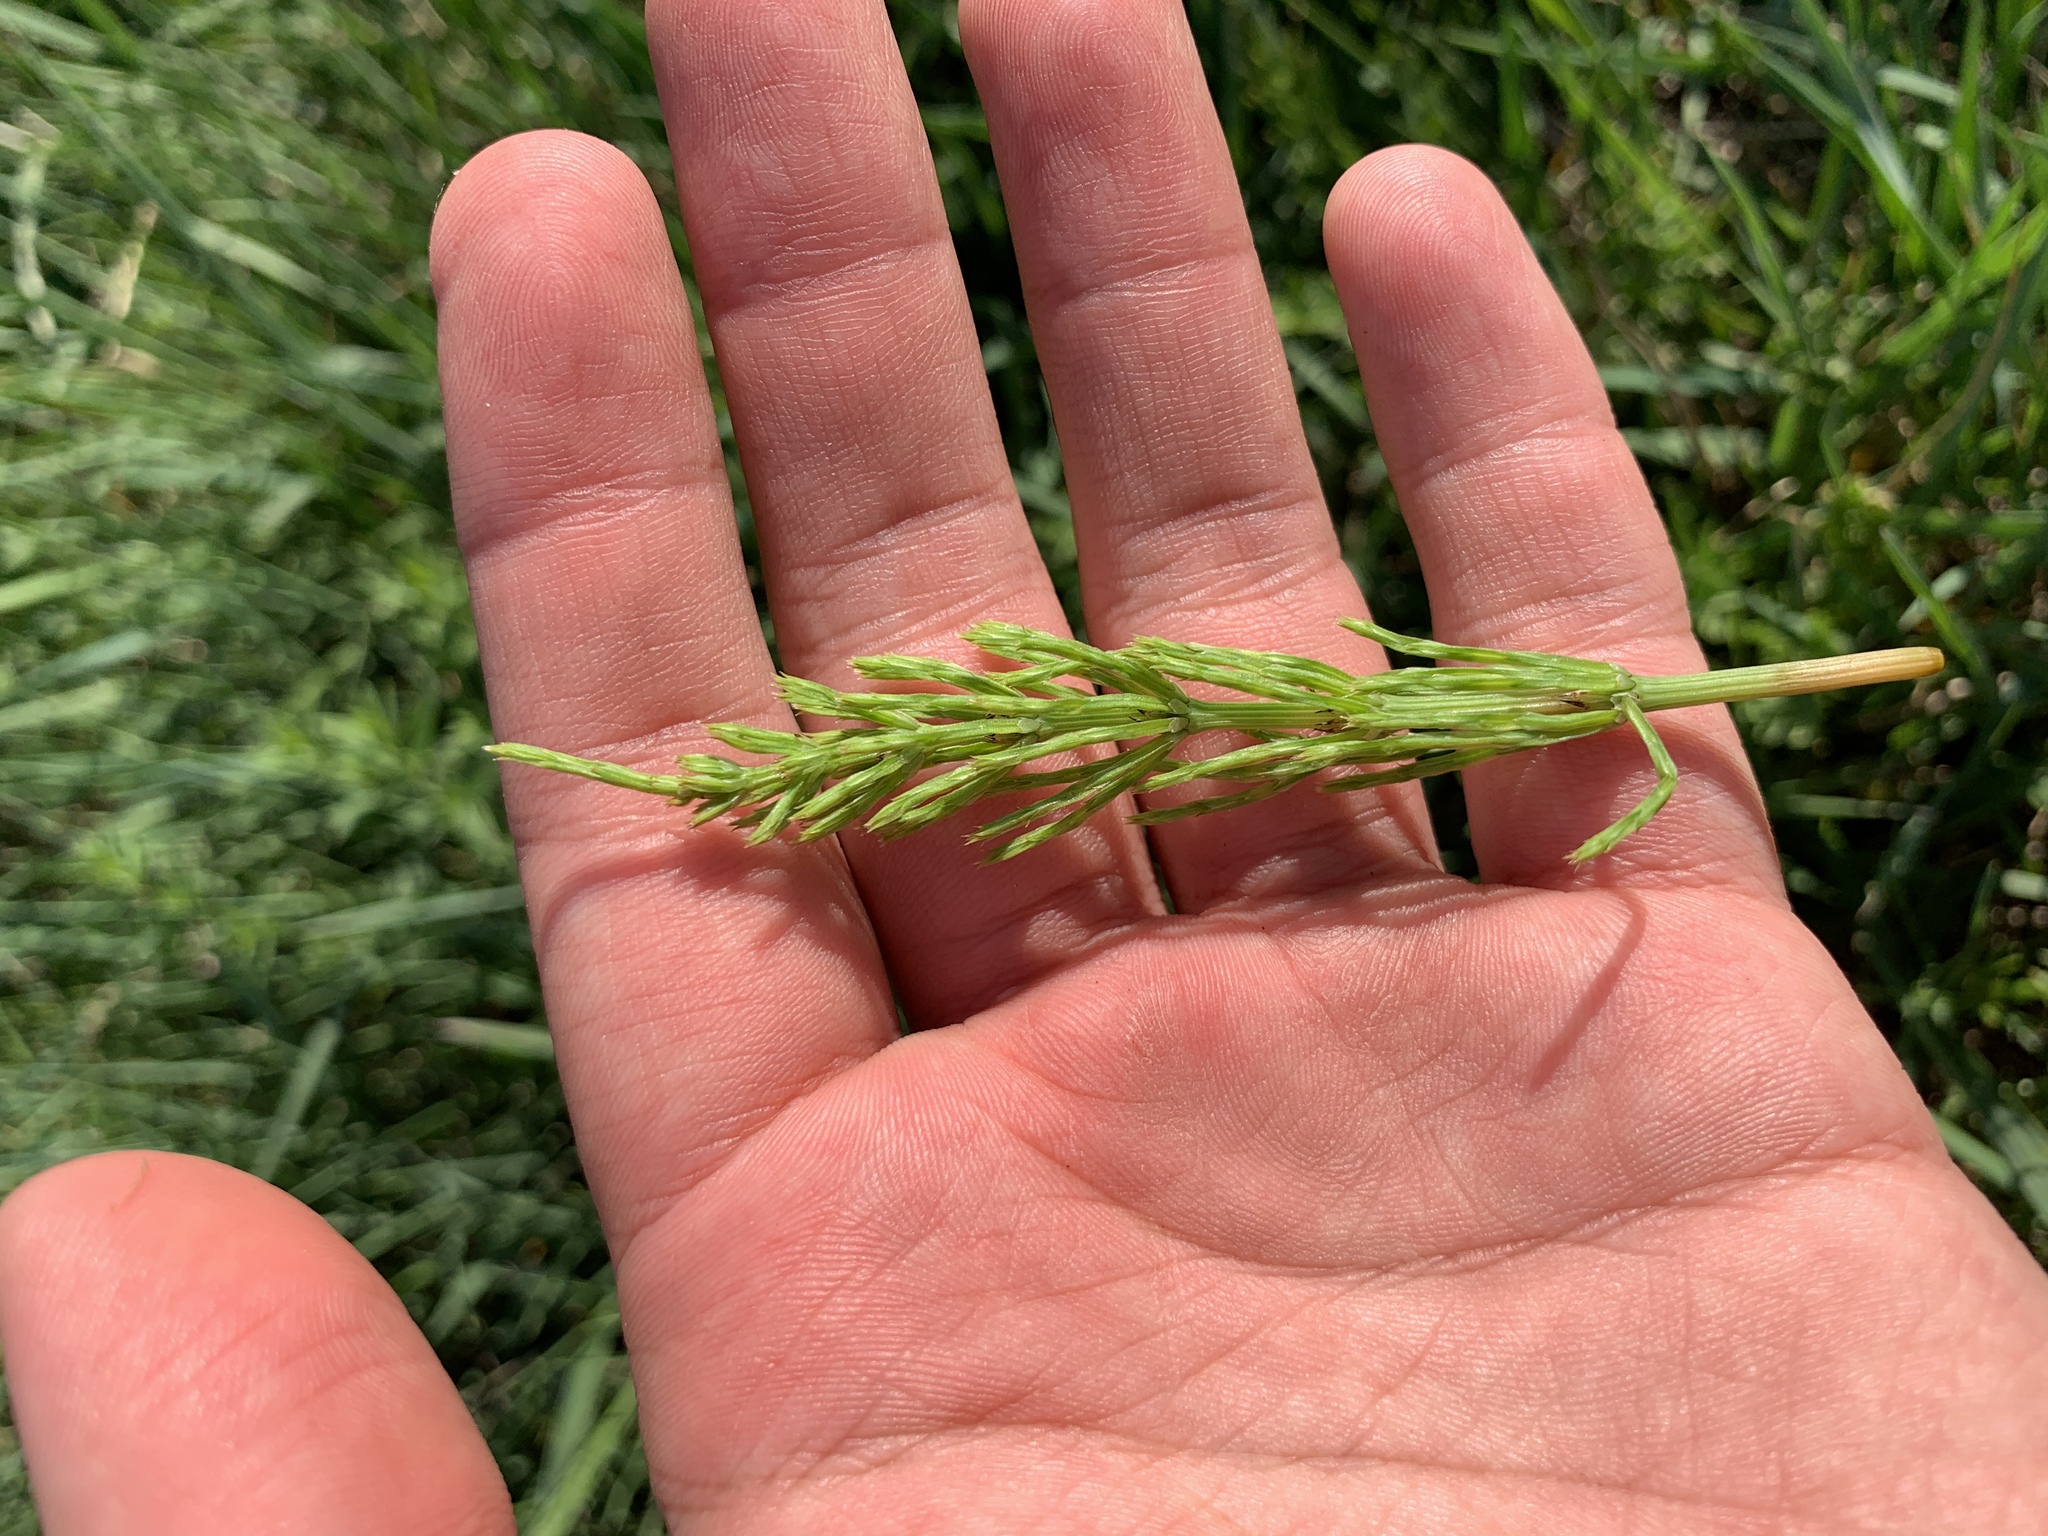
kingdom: Plantae
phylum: Tracheophyta
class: Polypodiopsida
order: Equisetales
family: Equisetaceae
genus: Equisetum
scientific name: Equisetum arvense
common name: Field horsetail
